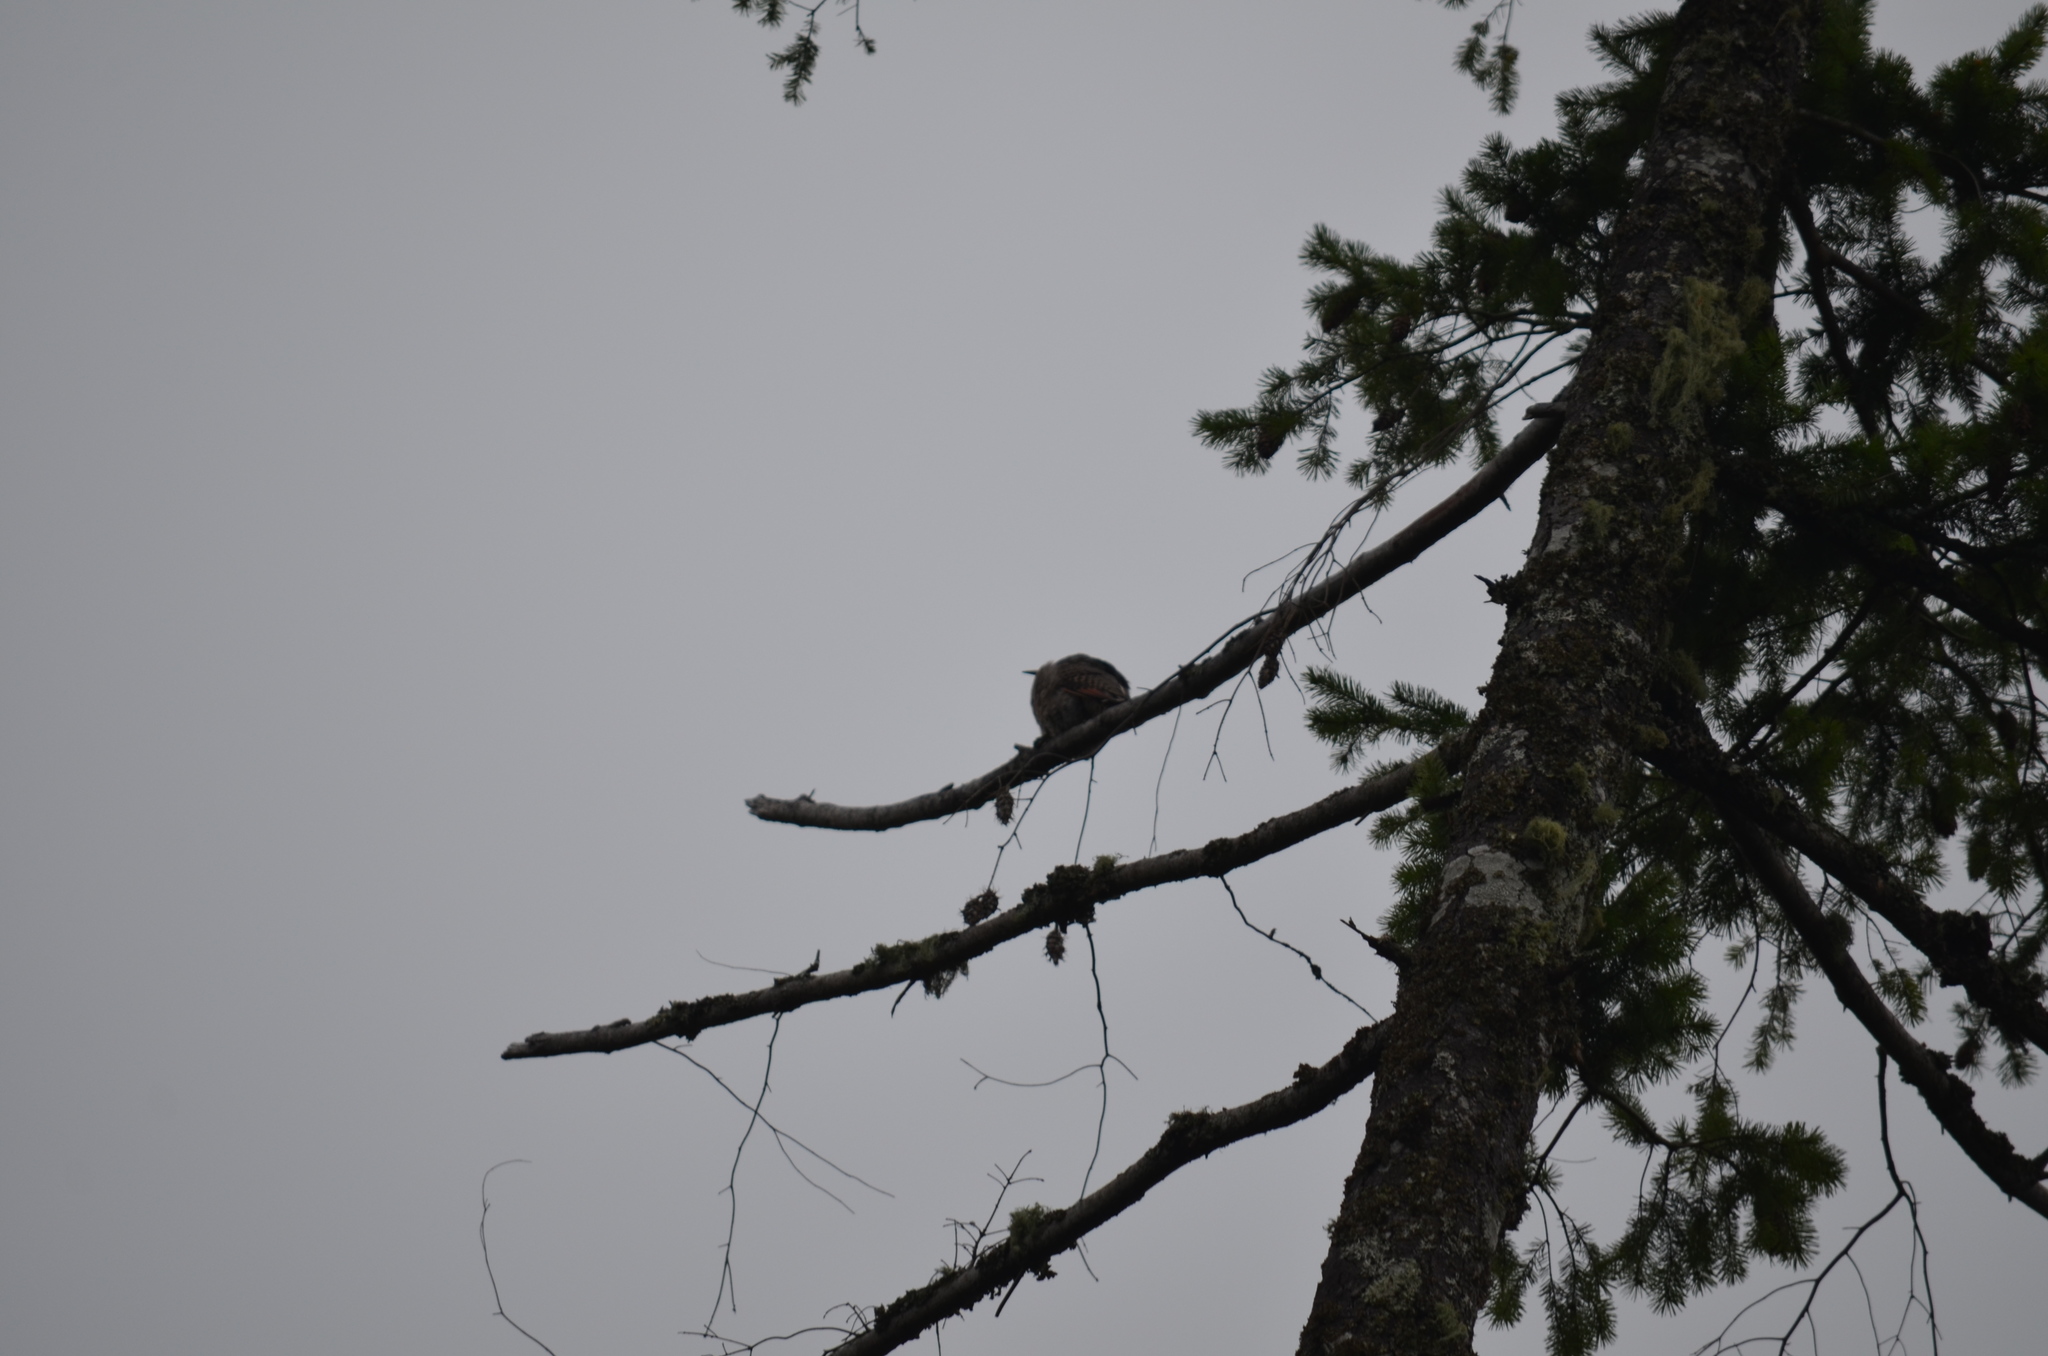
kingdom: Animalia
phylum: Chordata
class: Aves
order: Piciformes
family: Picidae
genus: Colaptes
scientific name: Colaptes auratus
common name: Northern flicker
